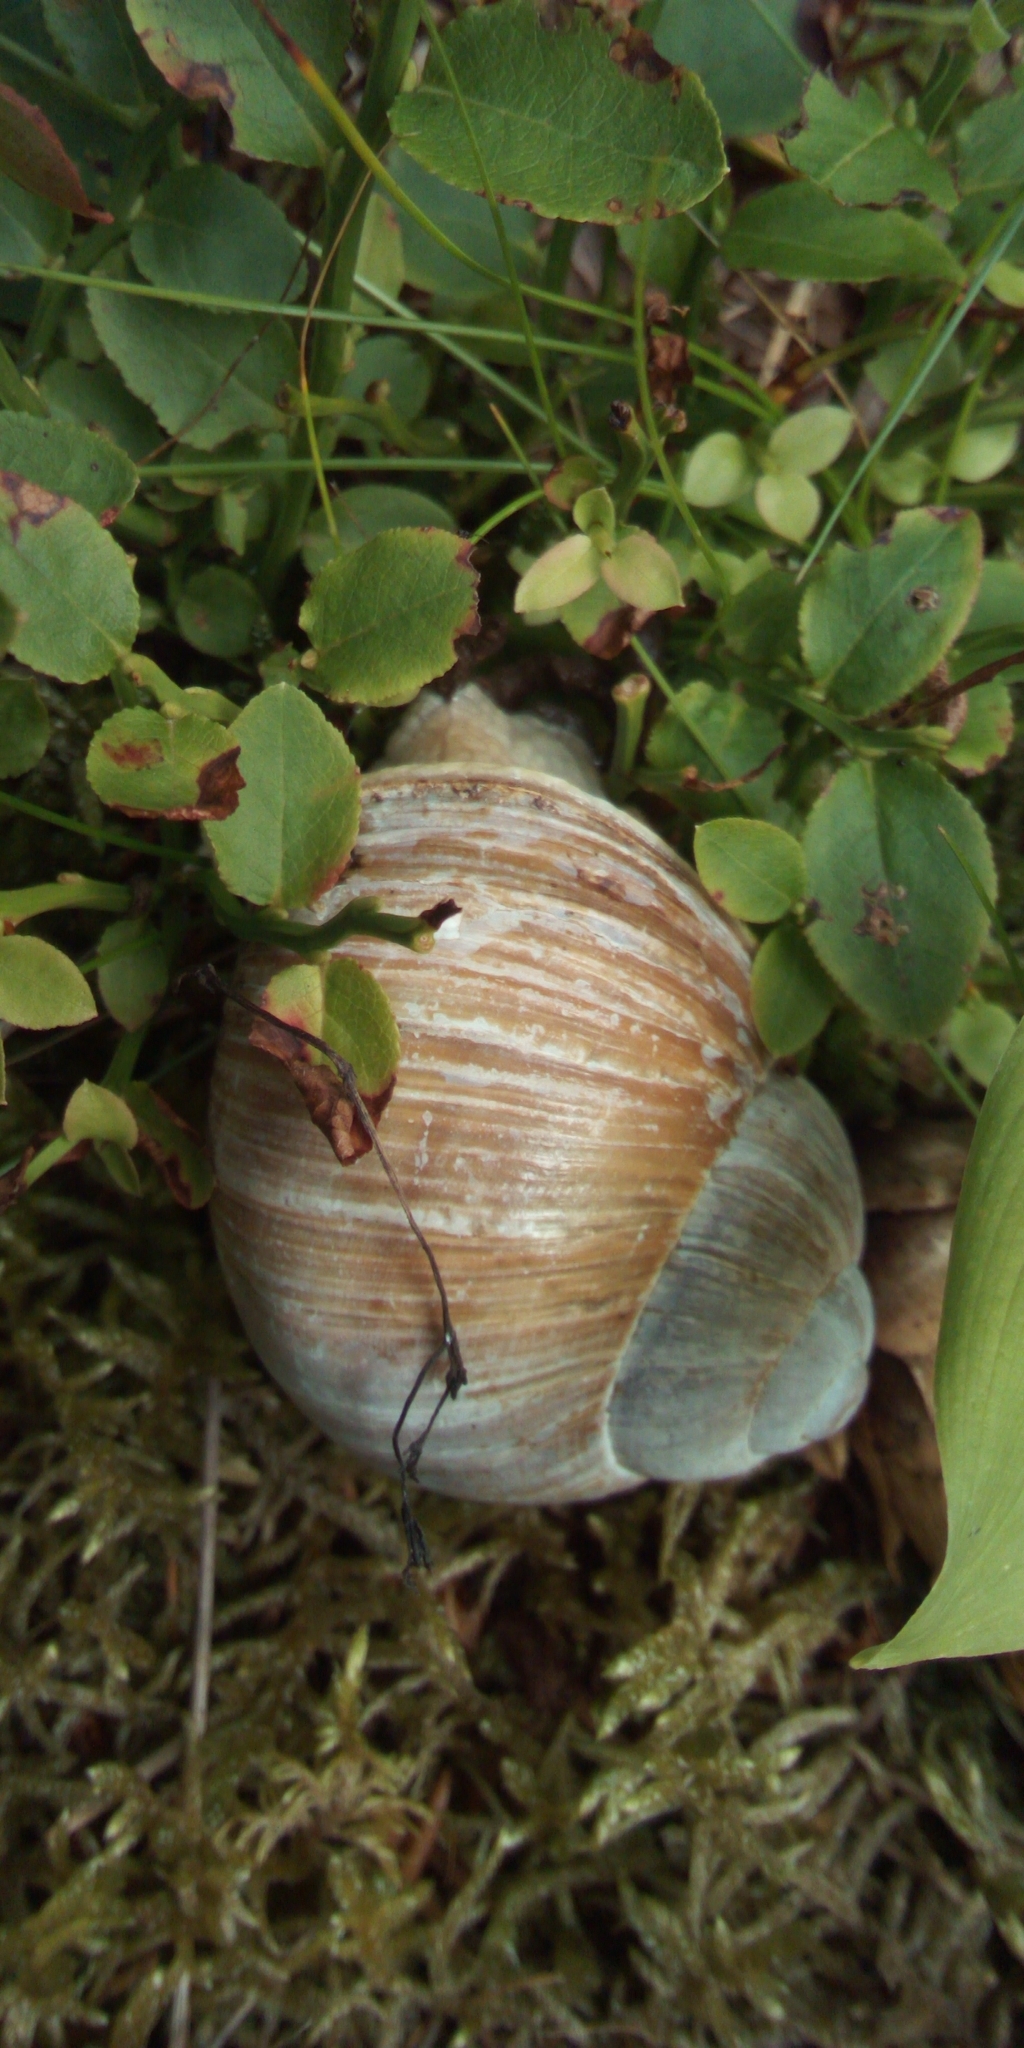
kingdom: Animalia
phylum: Mollusca
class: Gastropoda
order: Stylommatophora
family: Helicidae
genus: Helix
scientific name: Helix pomatia
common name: Roman snail
